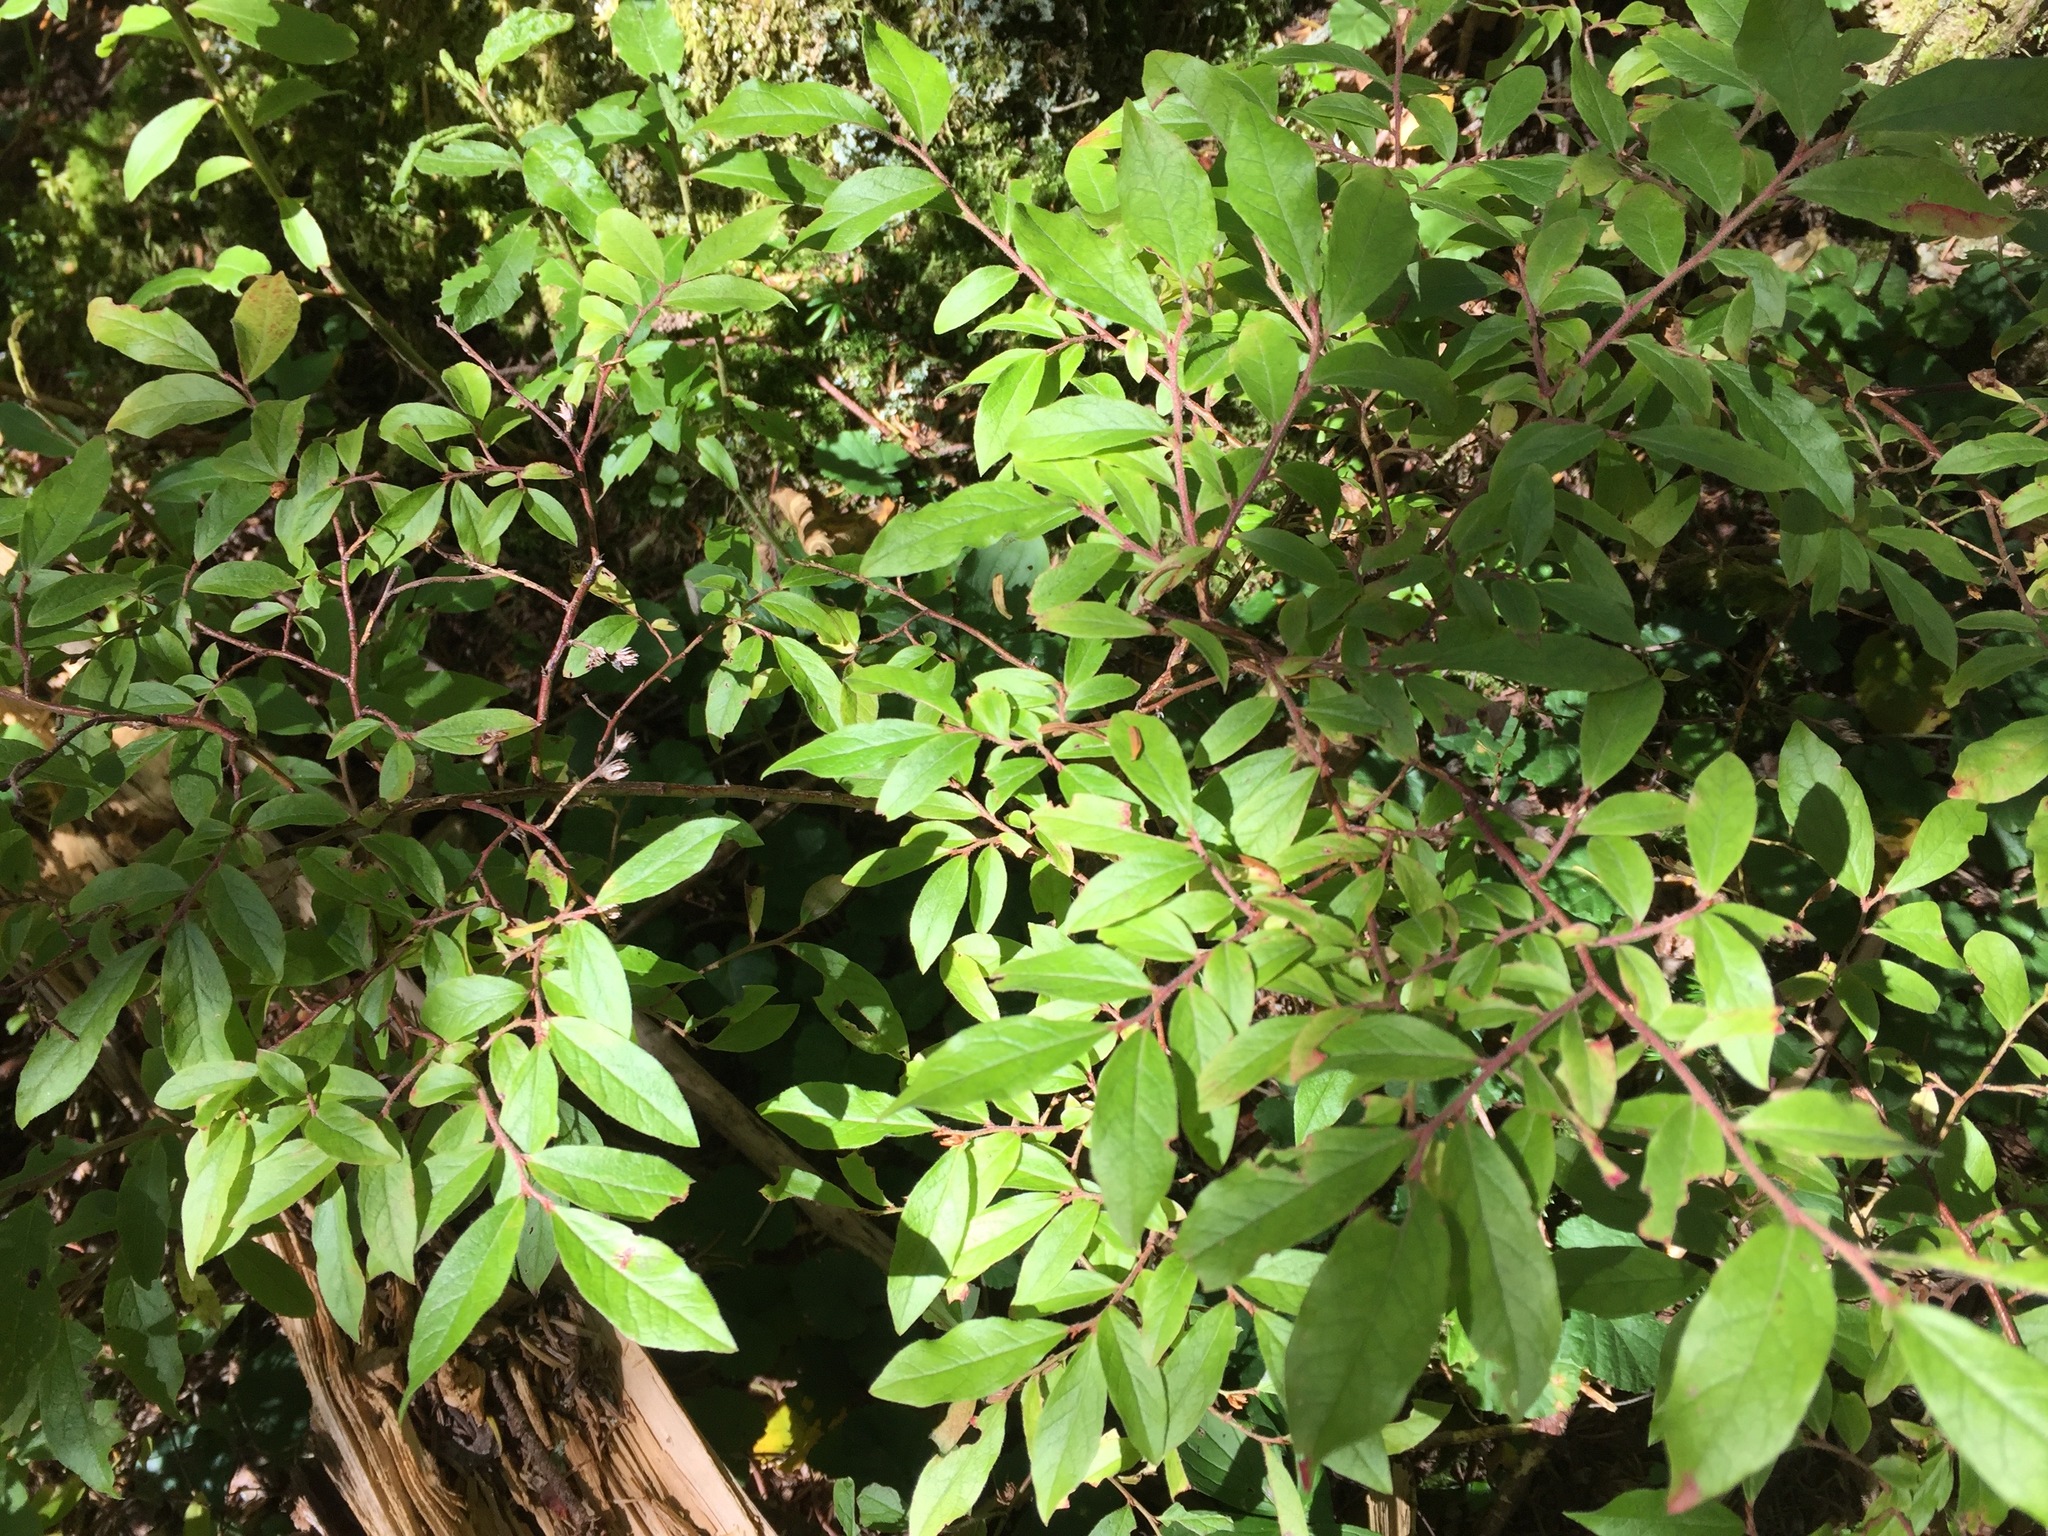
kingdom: Plantae
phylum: Tracheophyta
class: Magnoliopsida
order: Ericales
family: Ericaceae
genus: Vaccinium
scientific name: Vaccinium myrtilloides
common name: Canada blueberry
